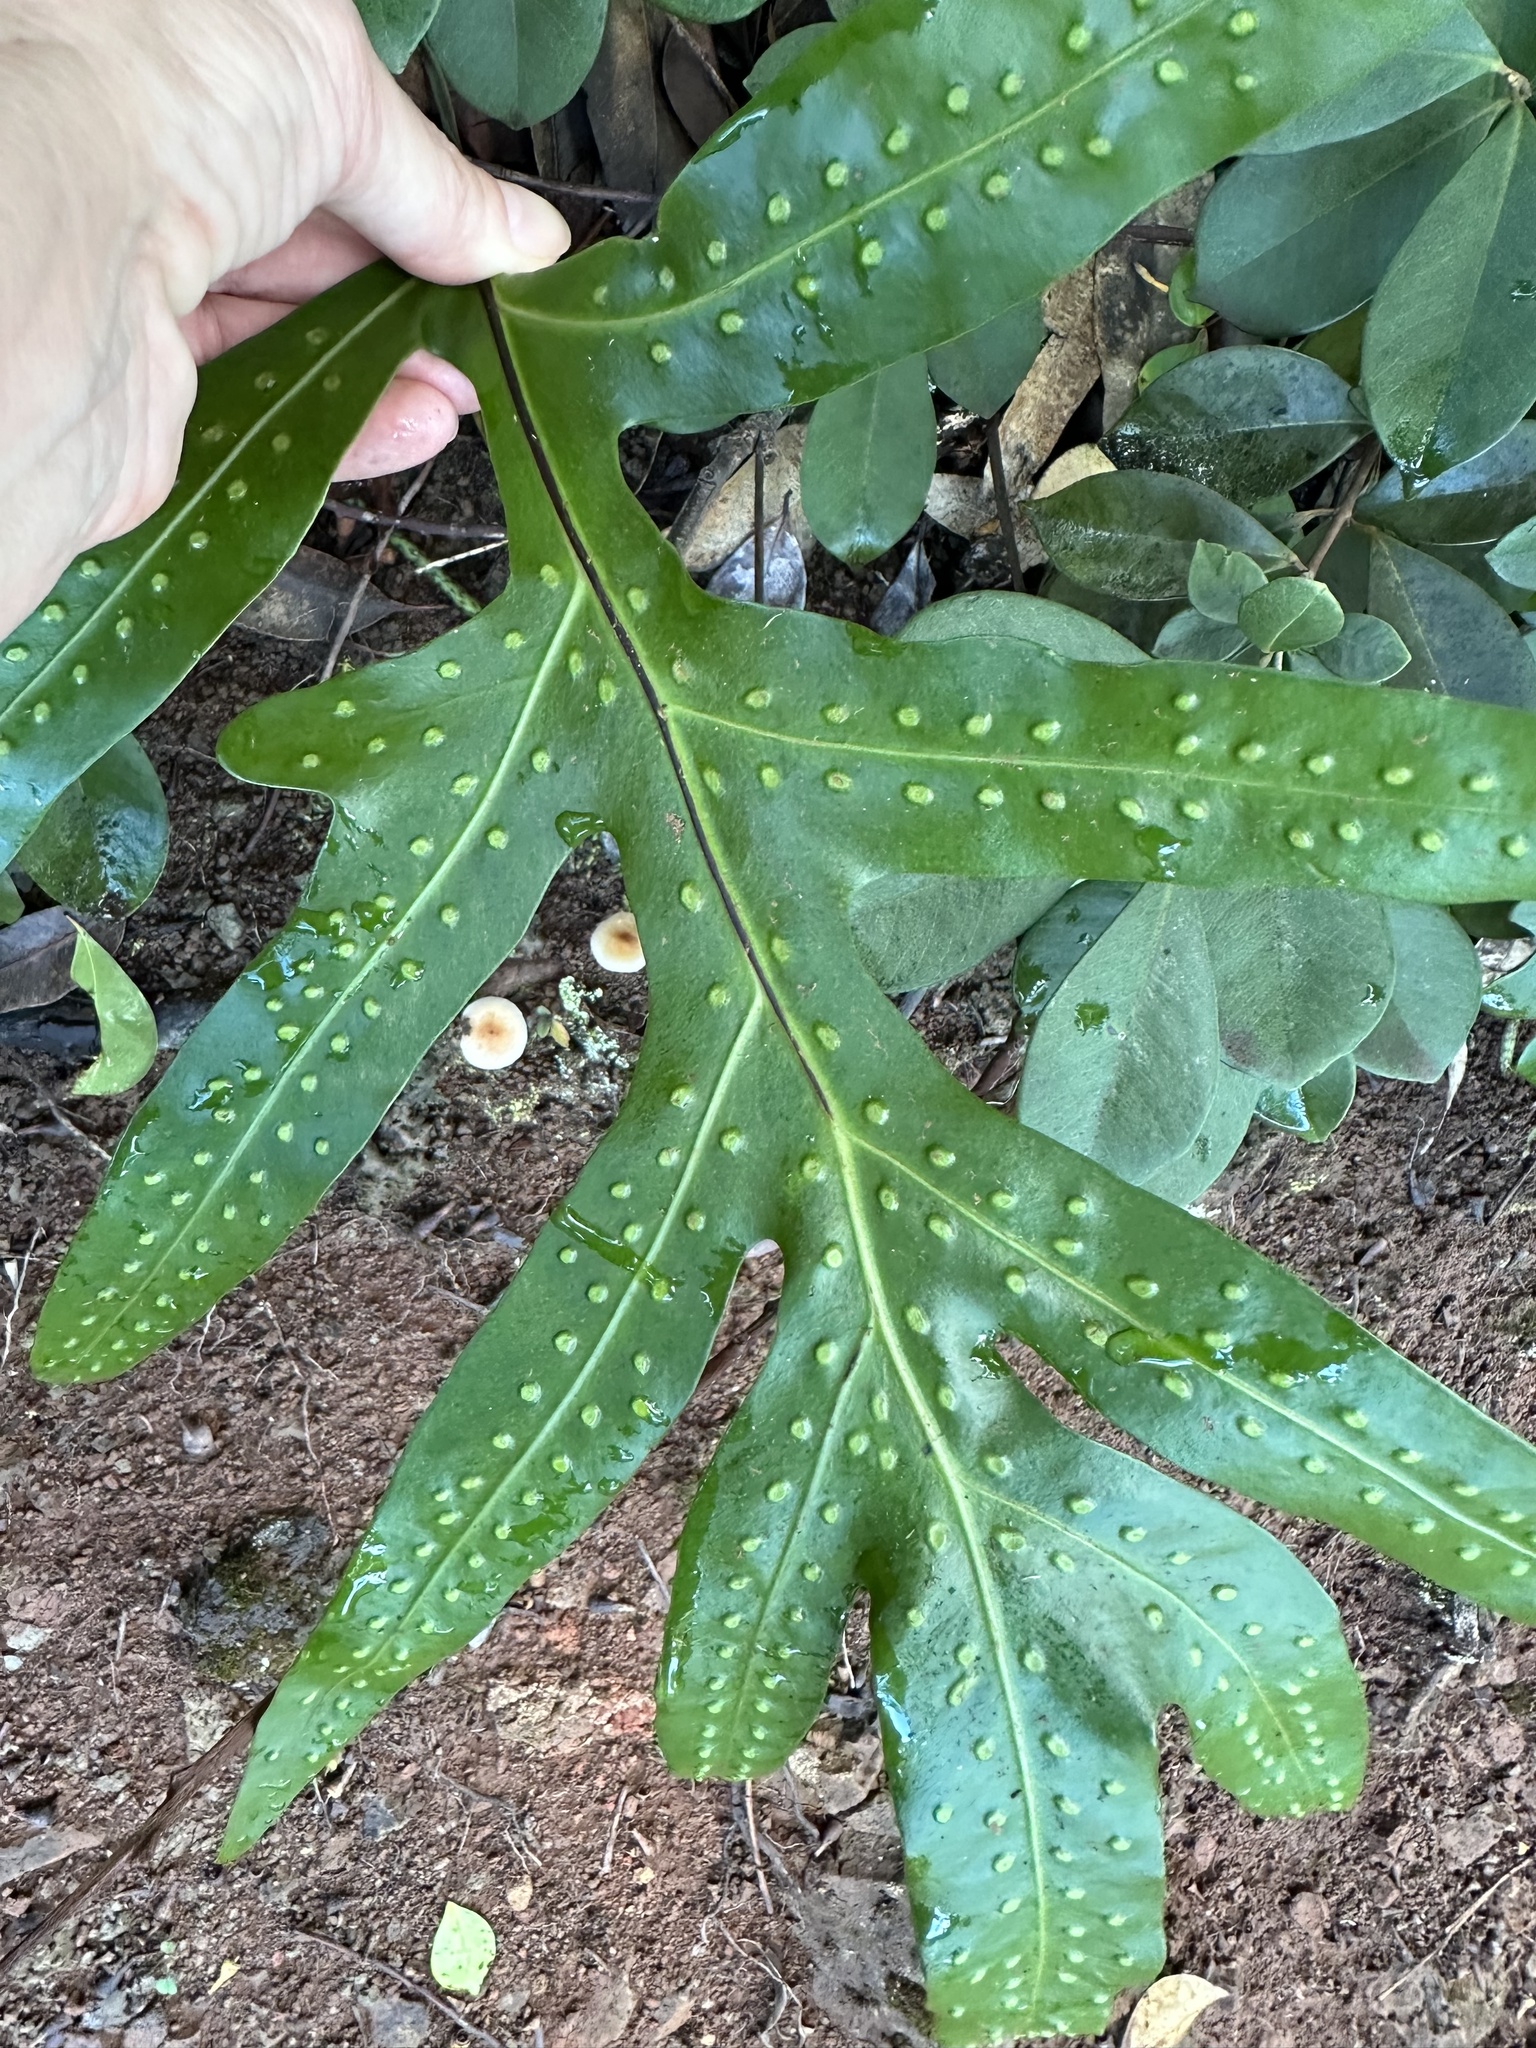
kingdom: Plantae
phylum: Tracheophyta
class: Polypodiopsida
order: Polypodiales
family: Polypodiaceae
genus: Microsorum
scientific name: Microsorum grossum
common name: Musk fern
